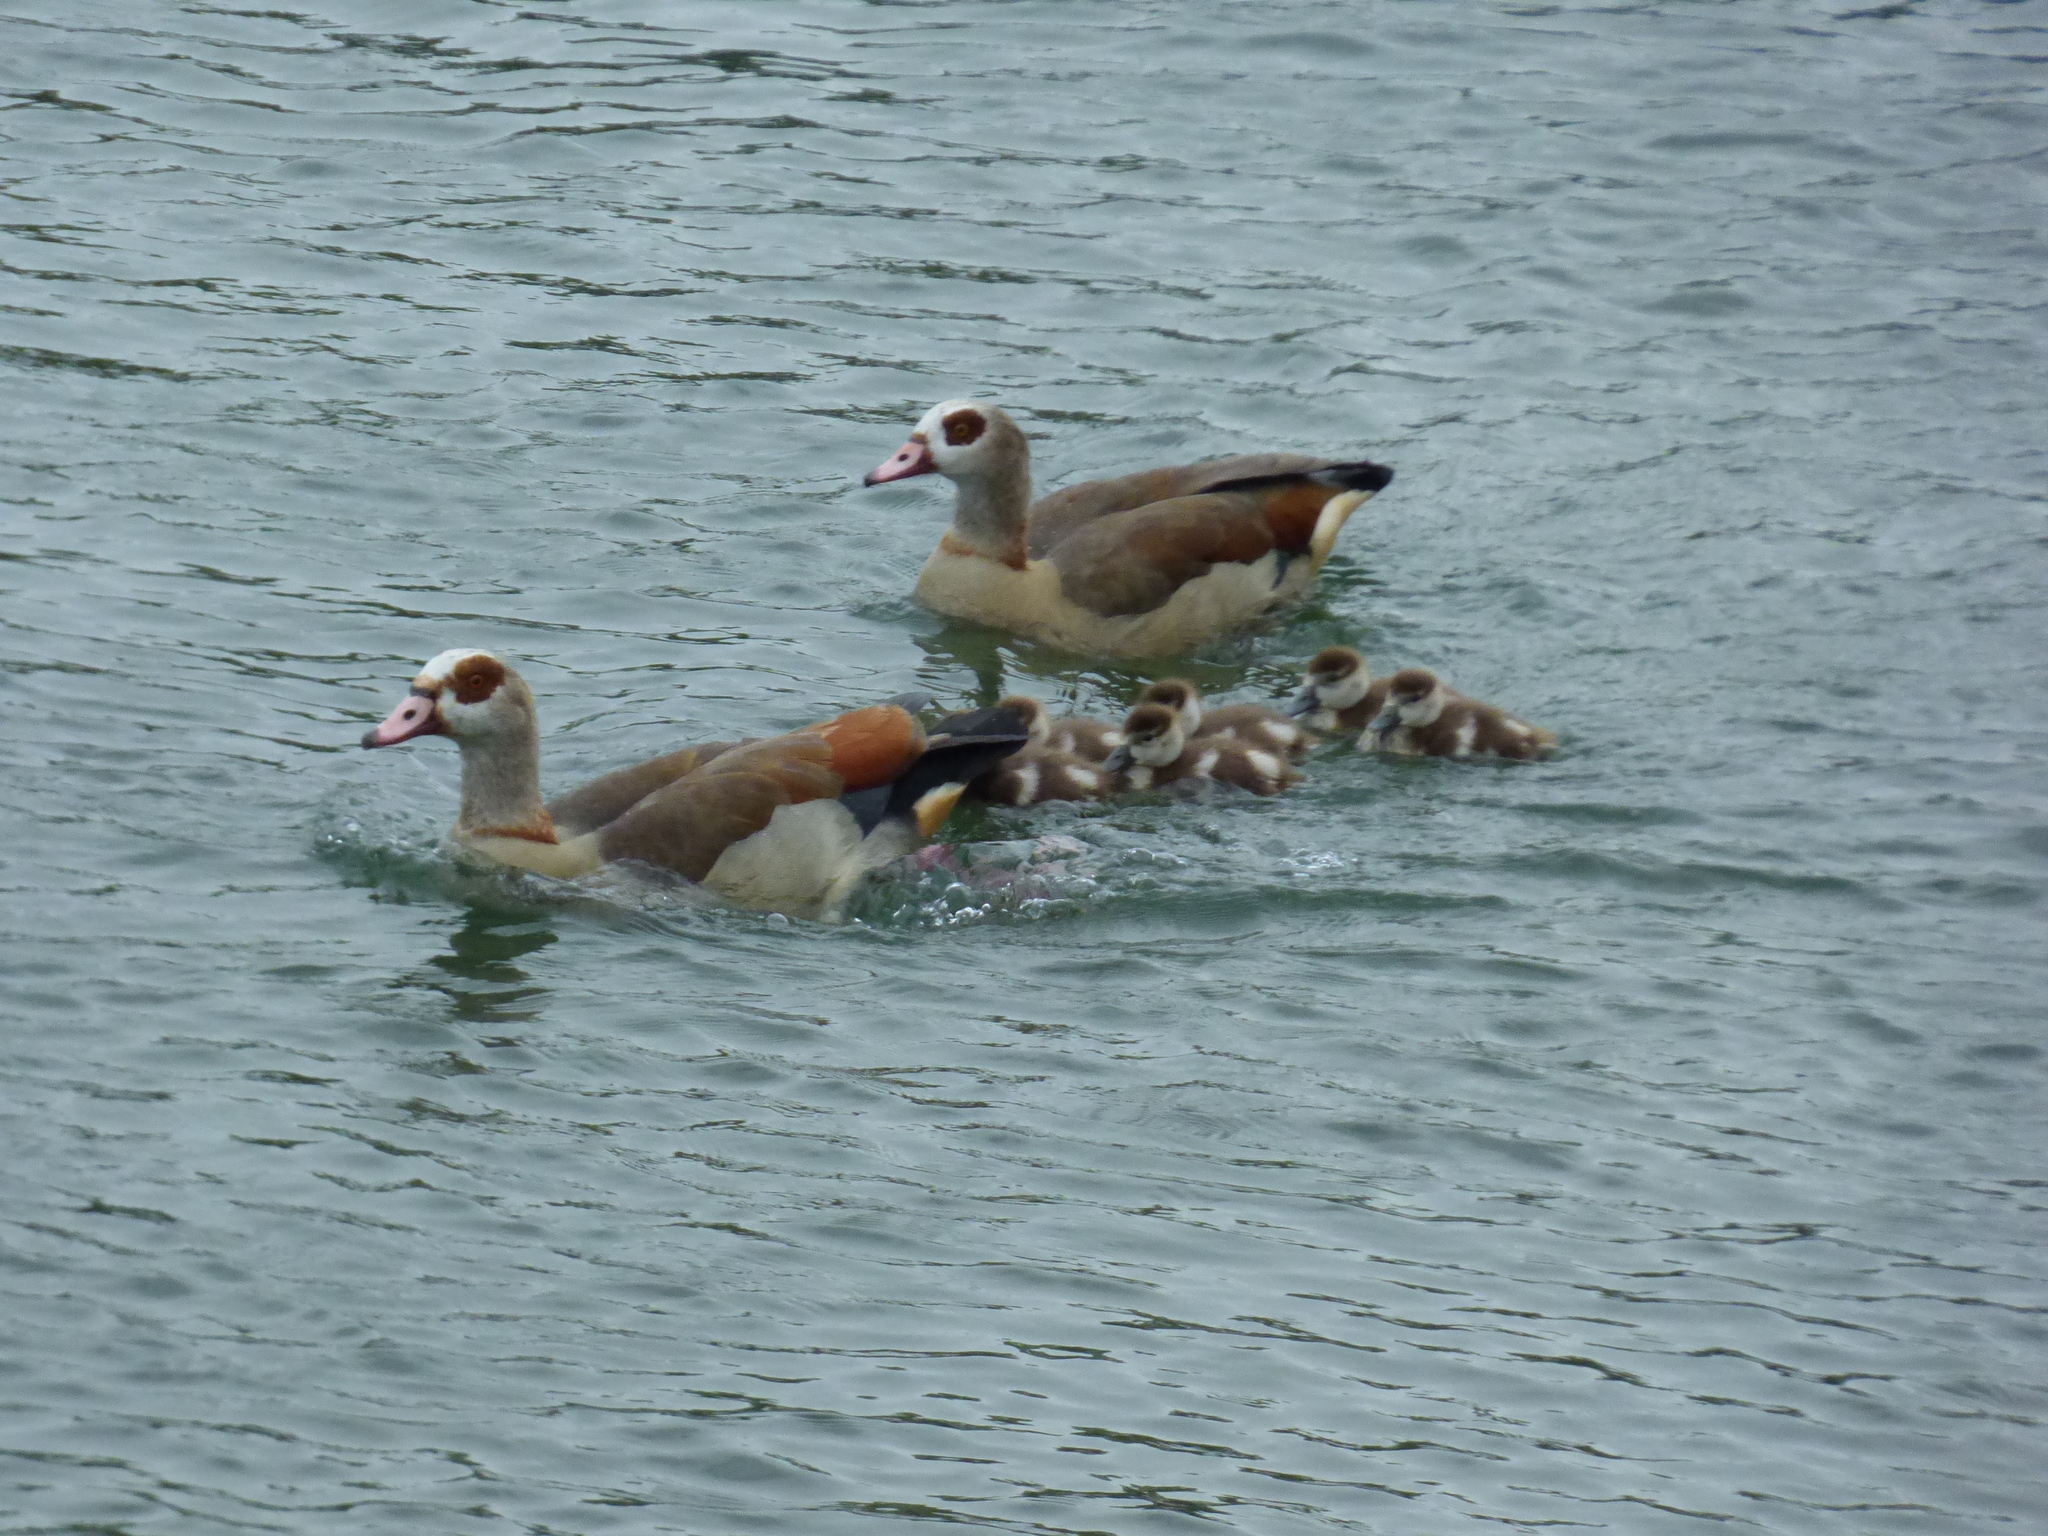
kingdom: Animalia
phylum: Chordata
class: Aves
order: Anseriformes
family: Anatidae
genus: Alopochen
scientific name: Alopochen aegyptiaca
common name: Egyptian goose
